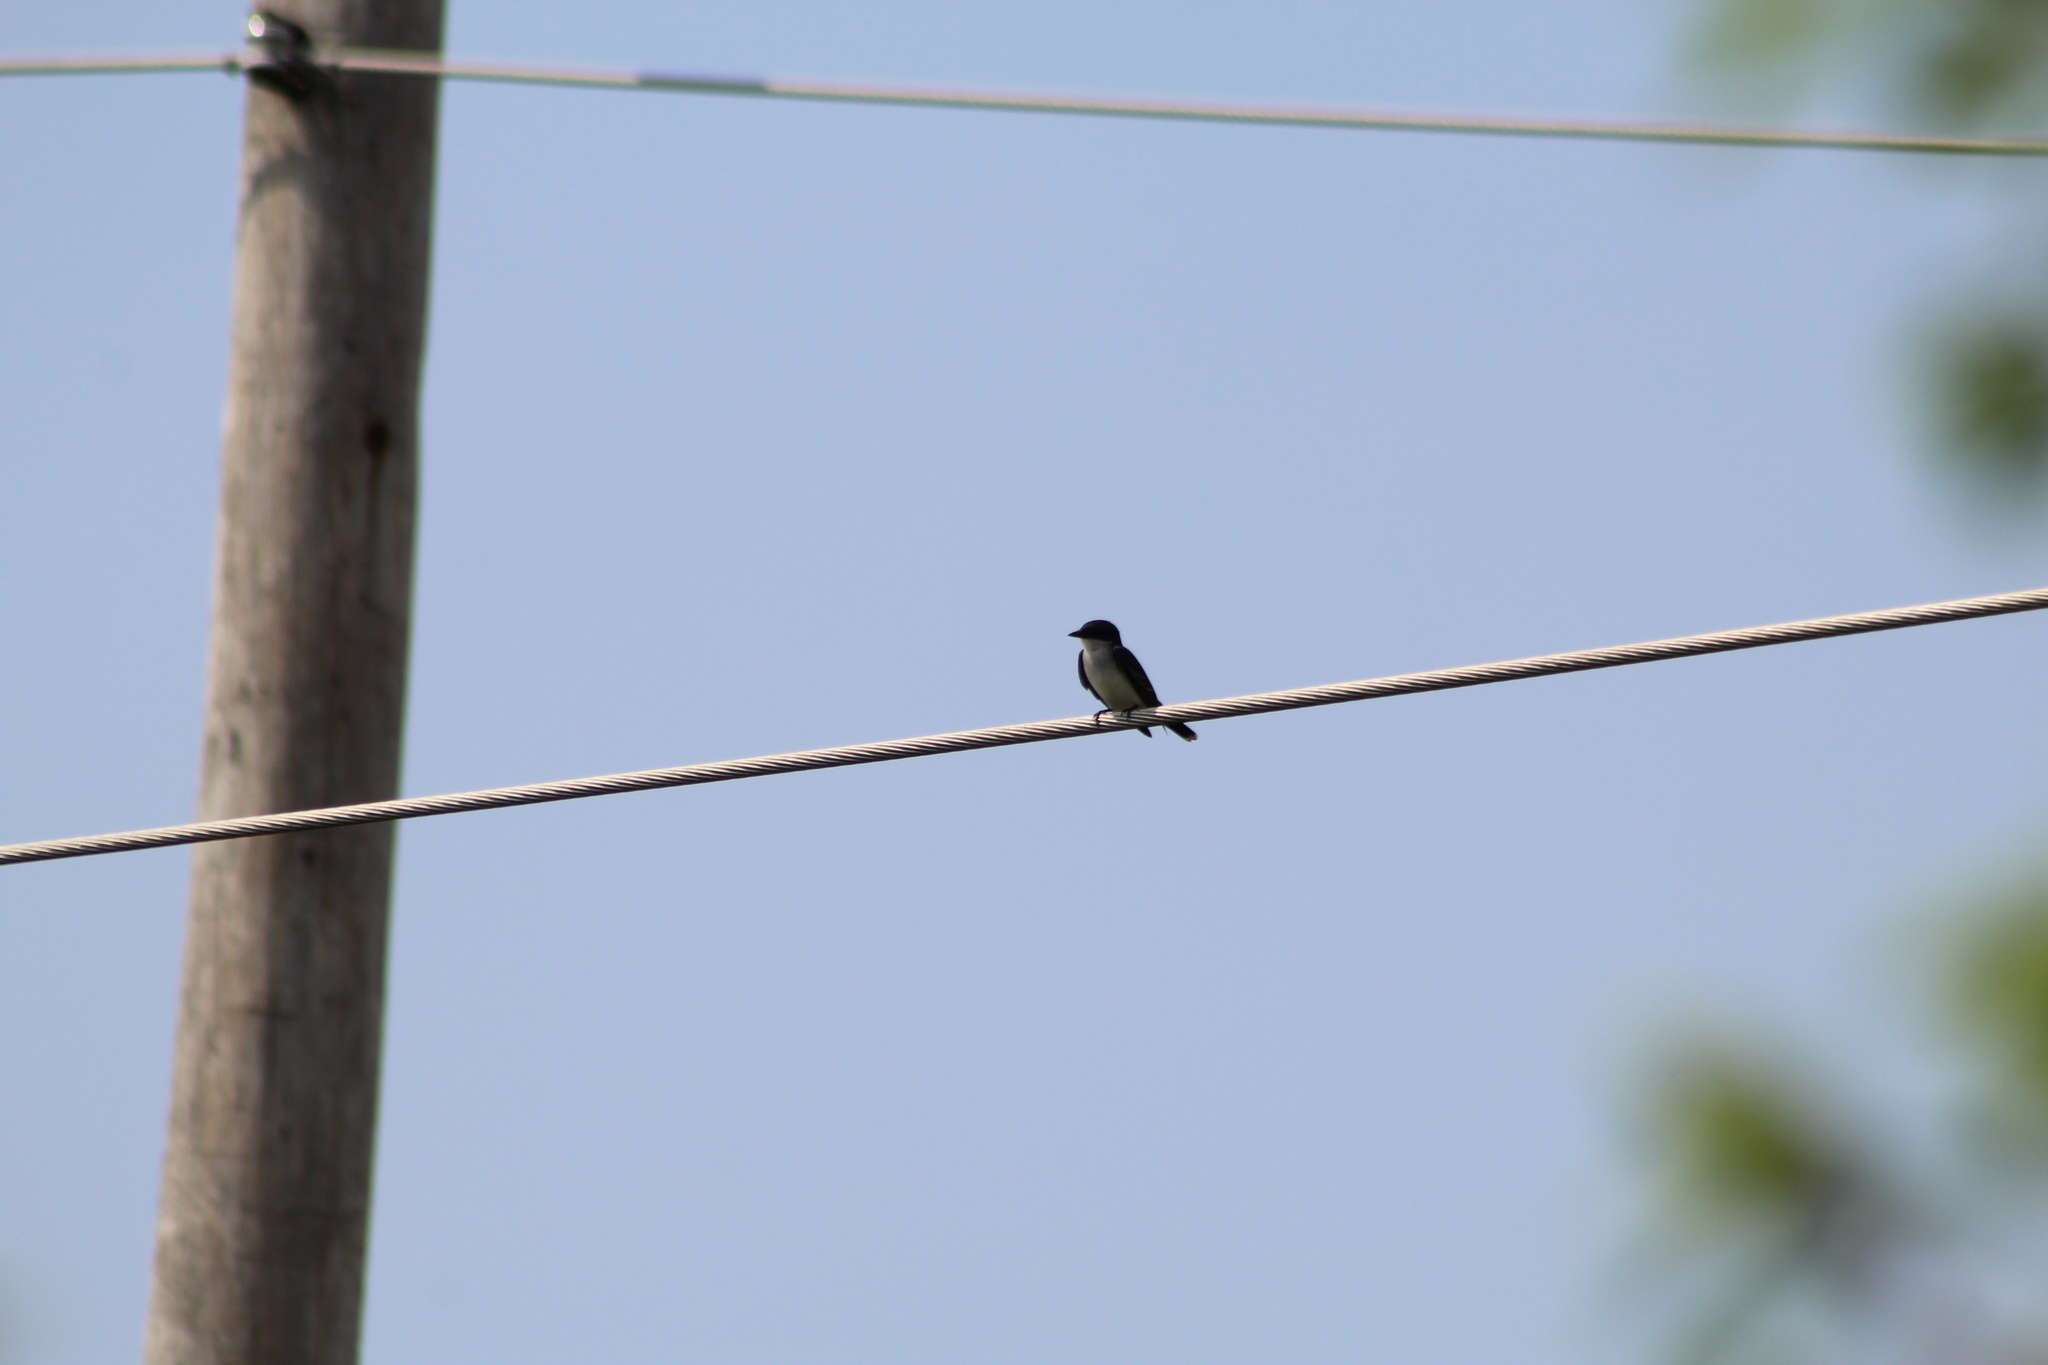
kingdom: Animalia
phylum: Chordata
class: Aves
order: Passeriformes
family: Tyrannidae
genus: Tyrannus
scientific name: Tyrannus tyrannus
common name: Eastern kingbird
